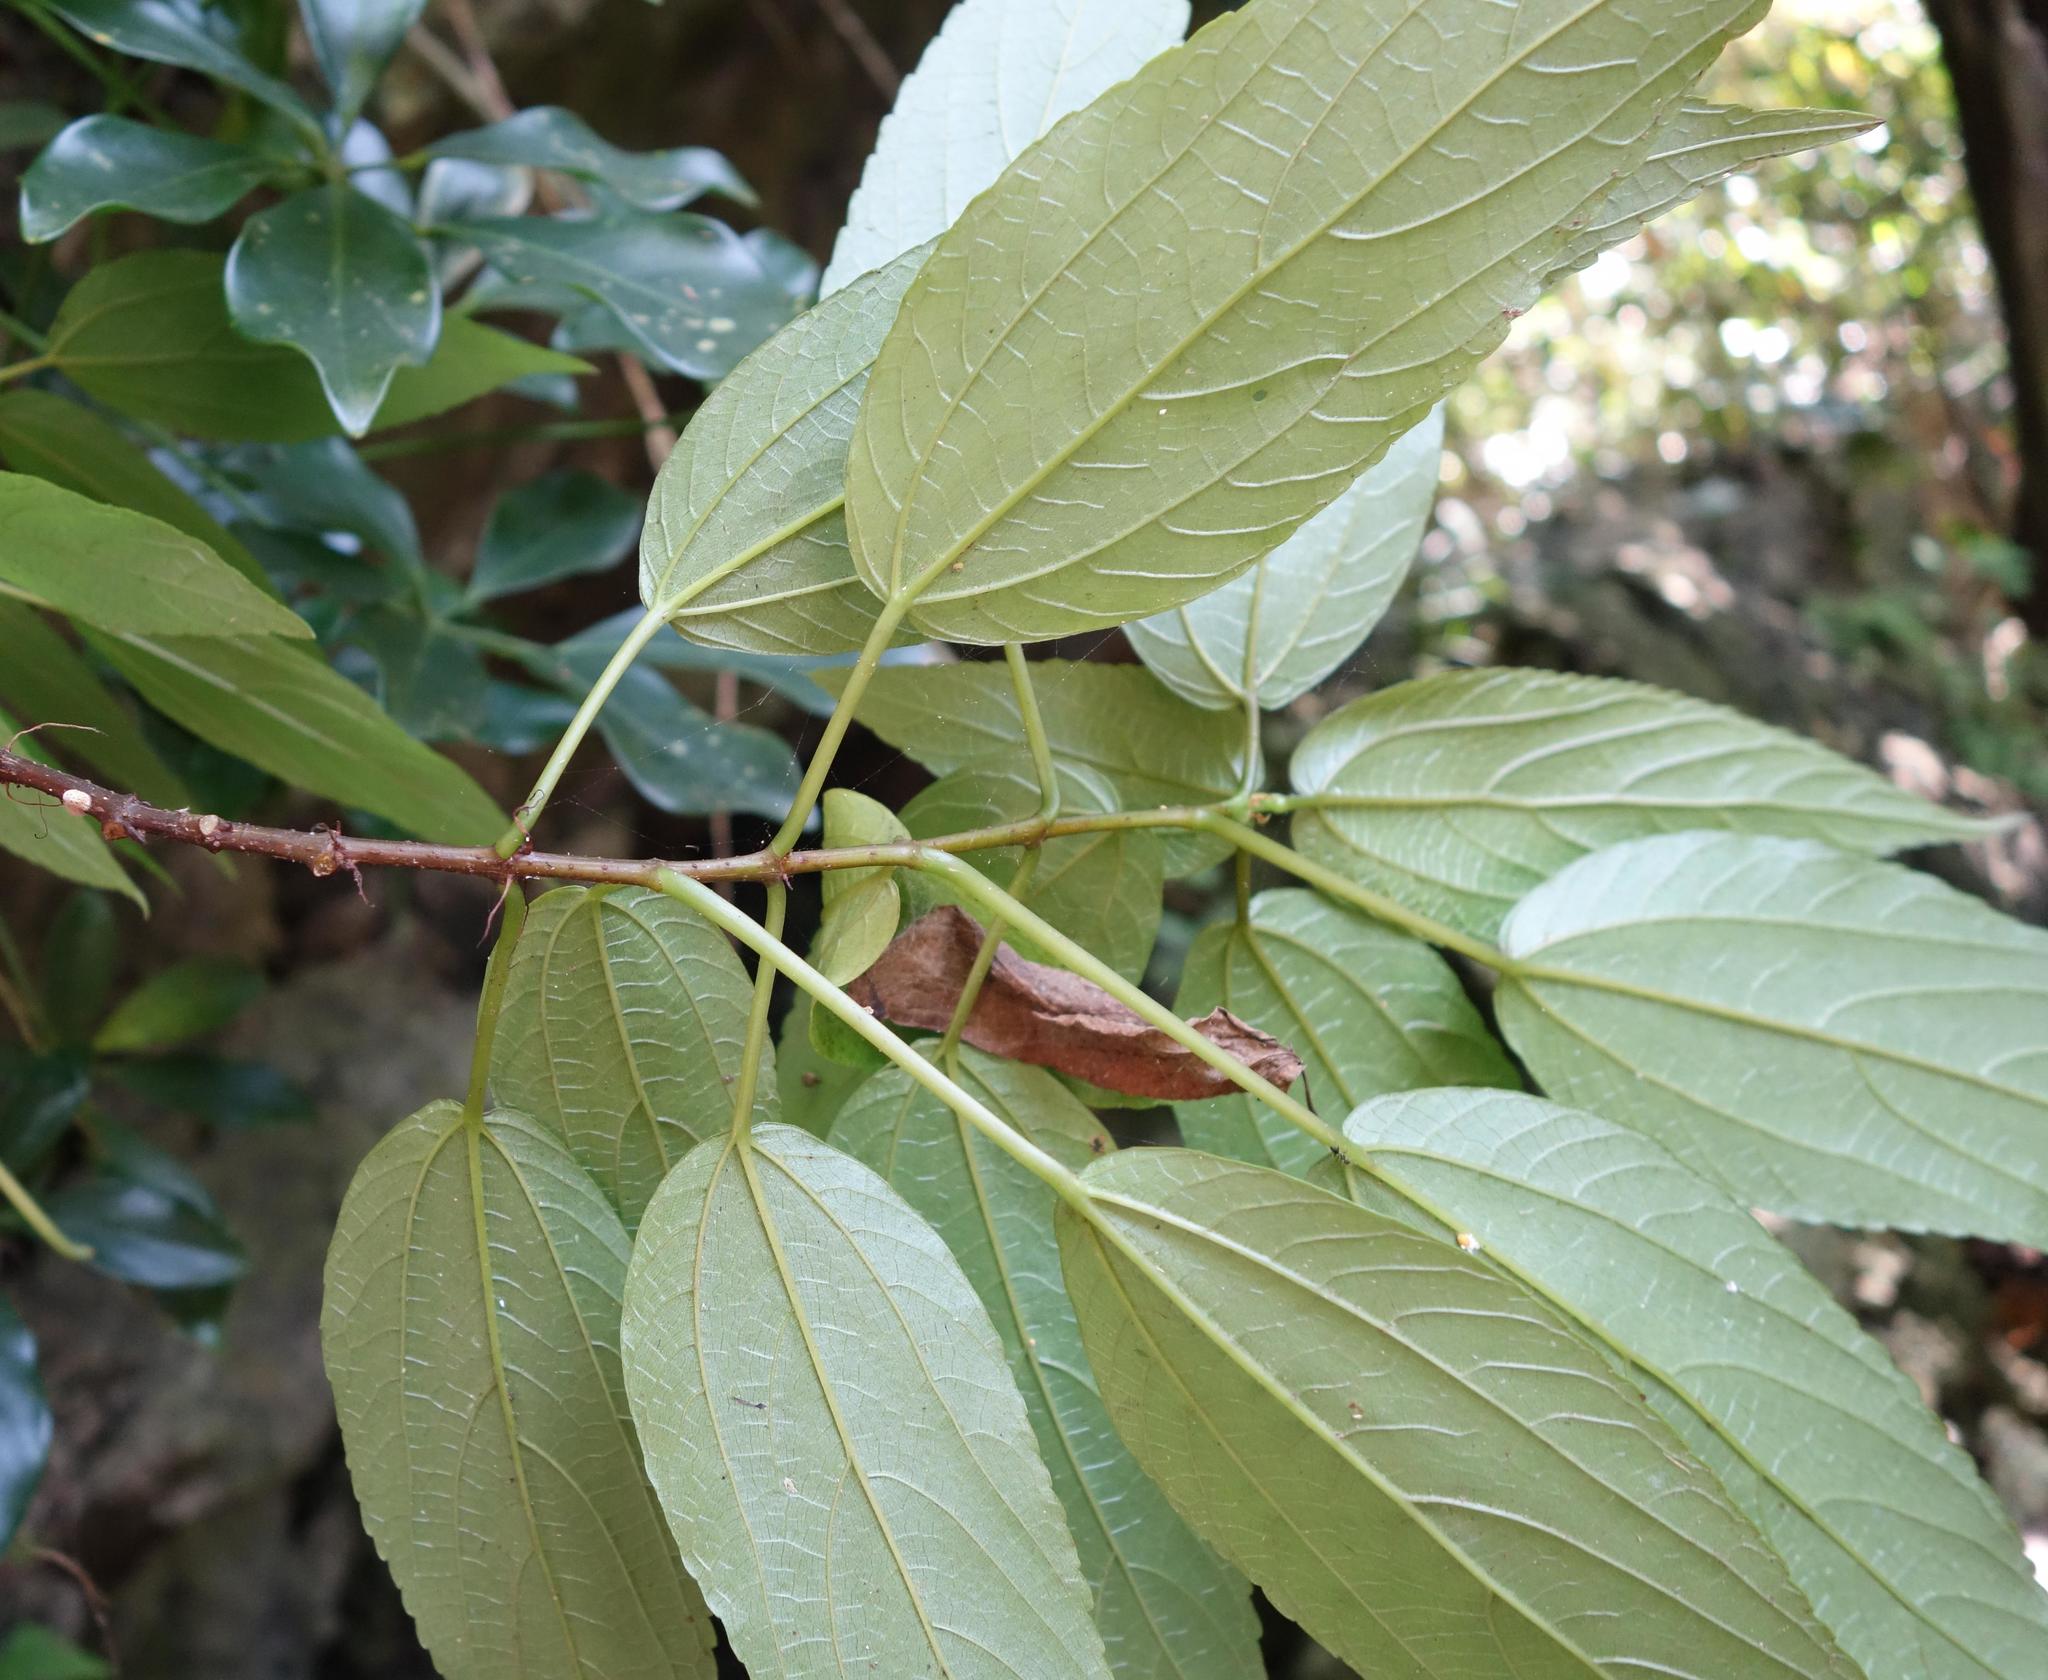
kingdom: Plantae
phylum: Tracheophyta
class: Magnoliopsida
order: Rosales
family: Urticaceae
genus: Boehmeria
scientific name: Boehmeria zollingeriana
